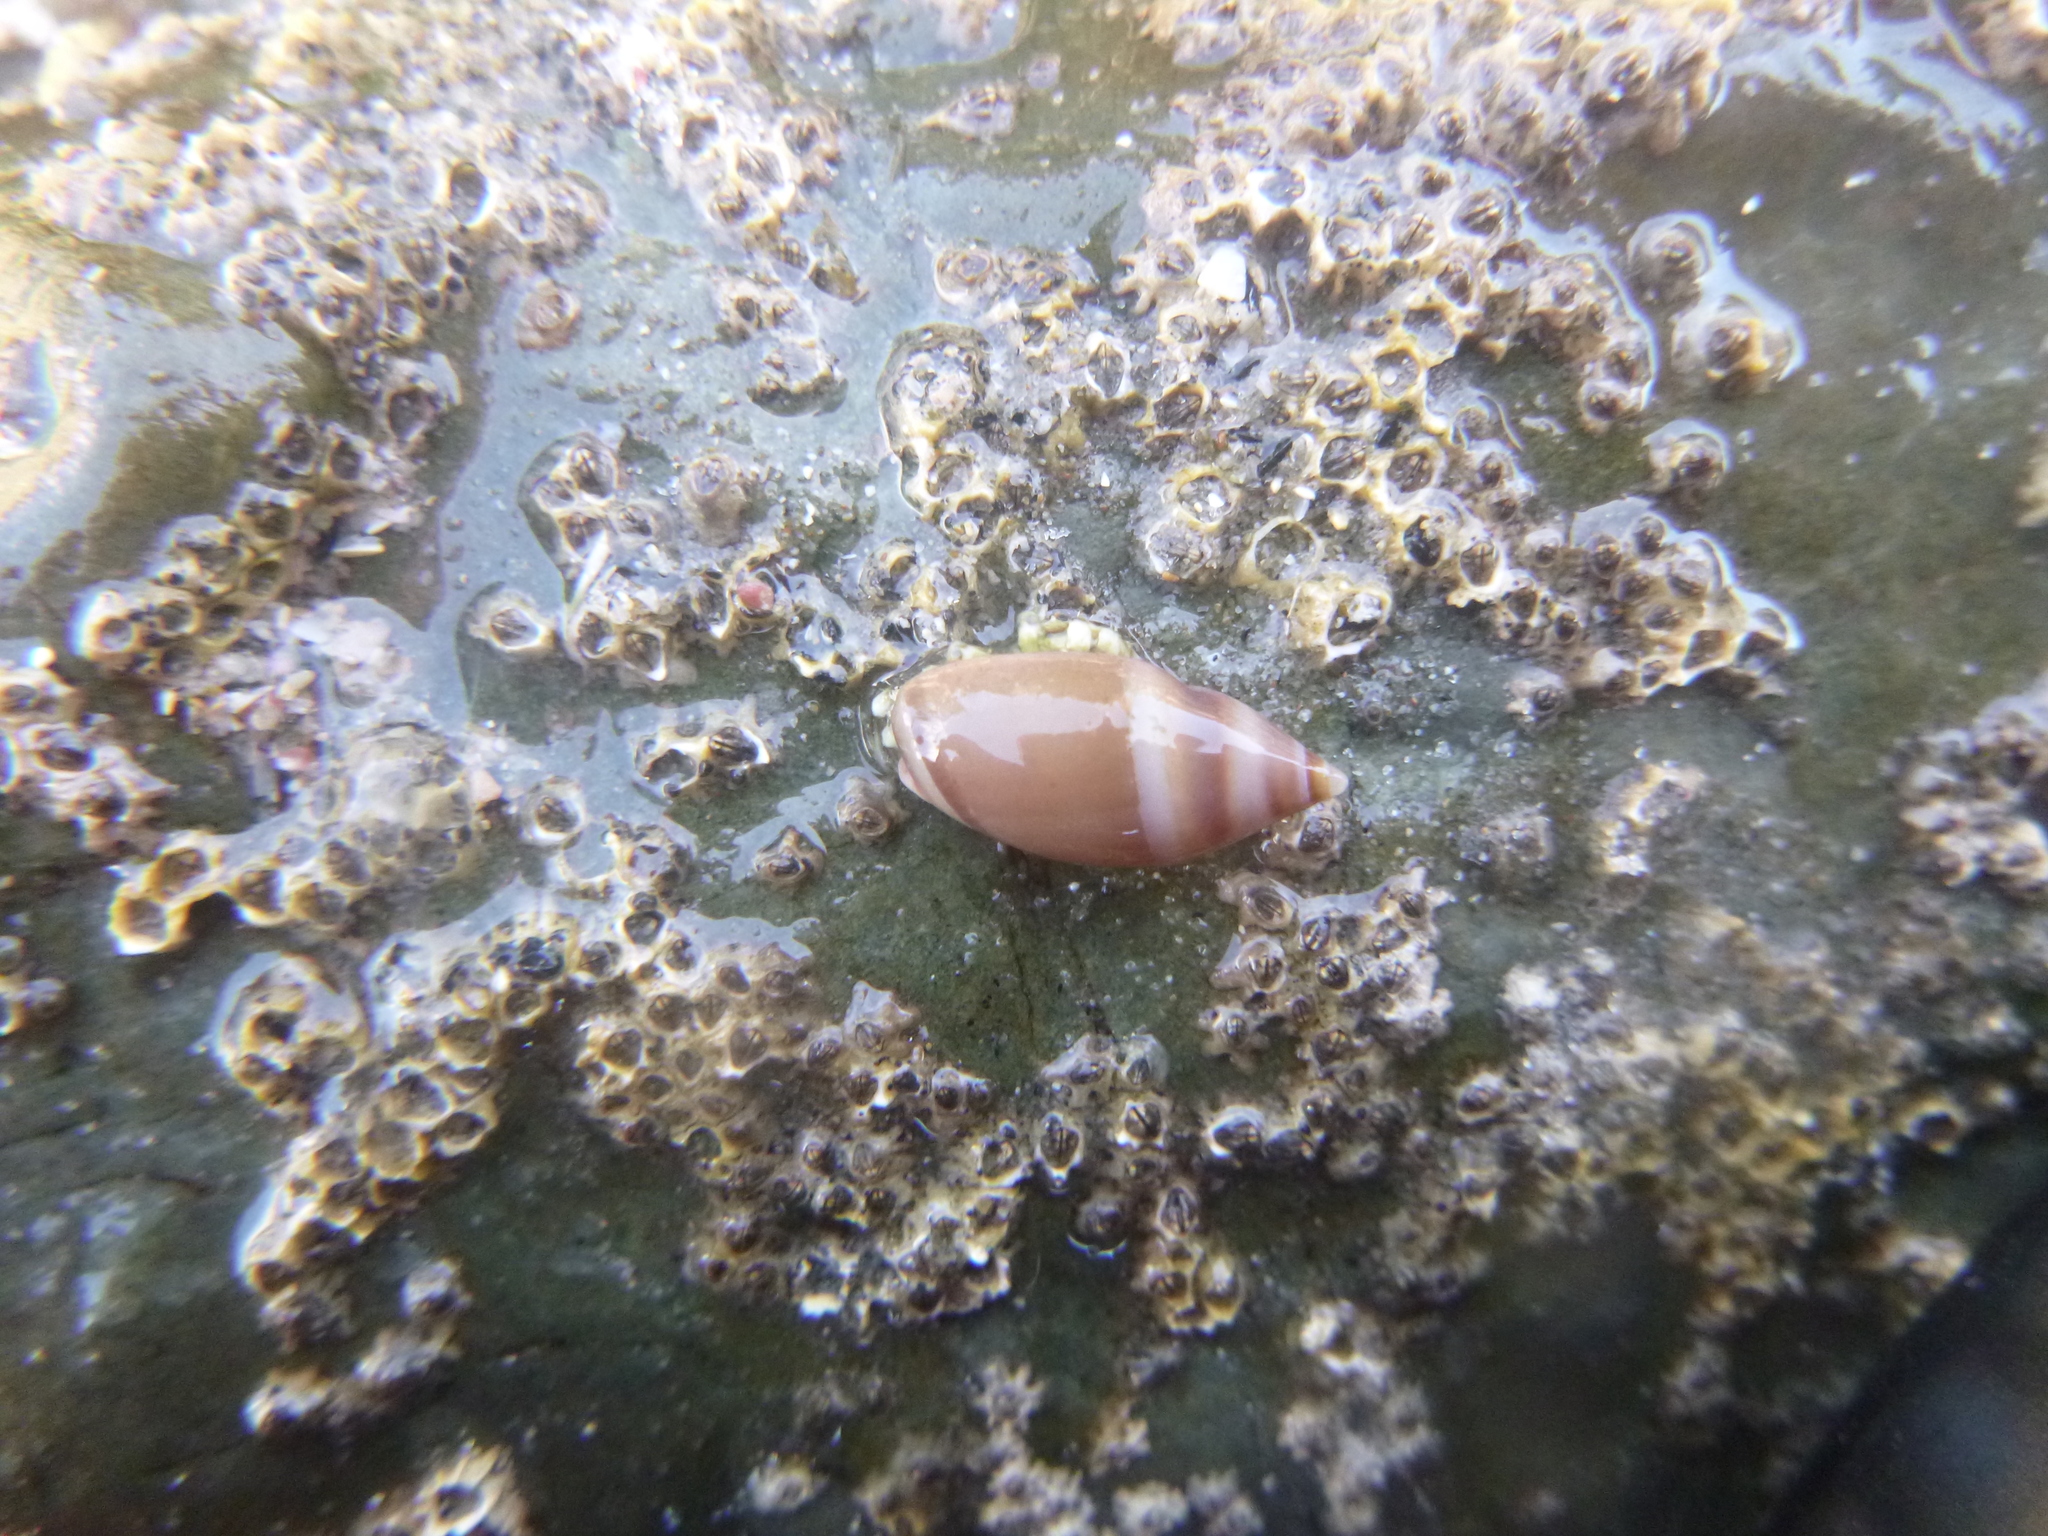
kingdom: Animalia
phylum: Mollusca
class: Gastropoda
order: Neogastropoda
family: Ancillariidae
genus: Amalda
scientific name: Amalda australis
